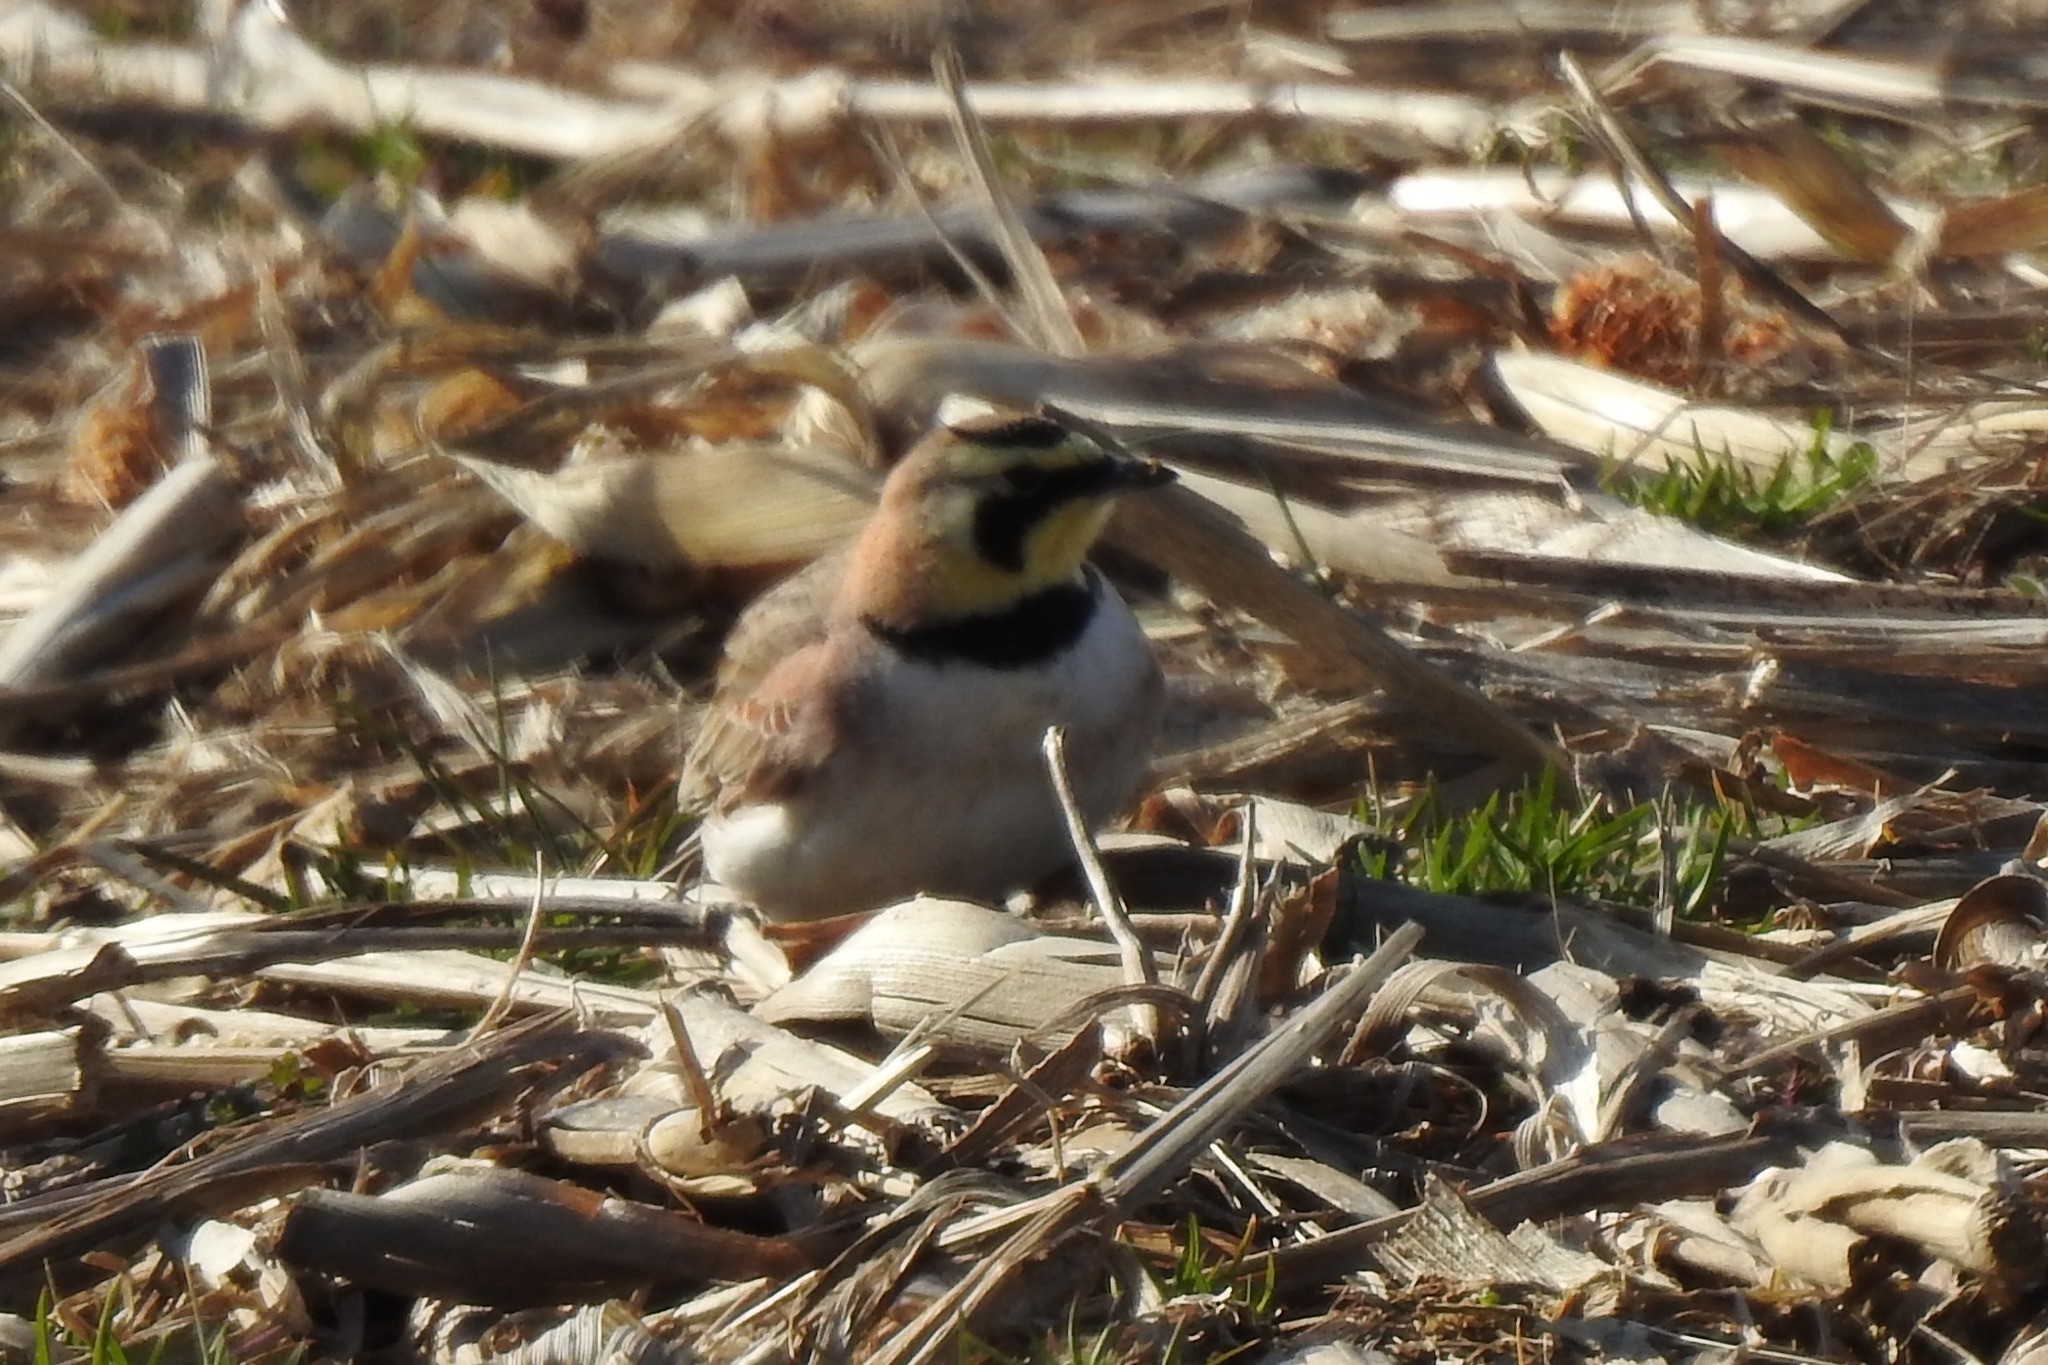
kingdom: Animalia
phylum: Chordata
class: Aves
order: Passeriformes
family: Alaudidae
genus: Eremophila
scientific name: Eremophila alpestris
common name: Horned lark
